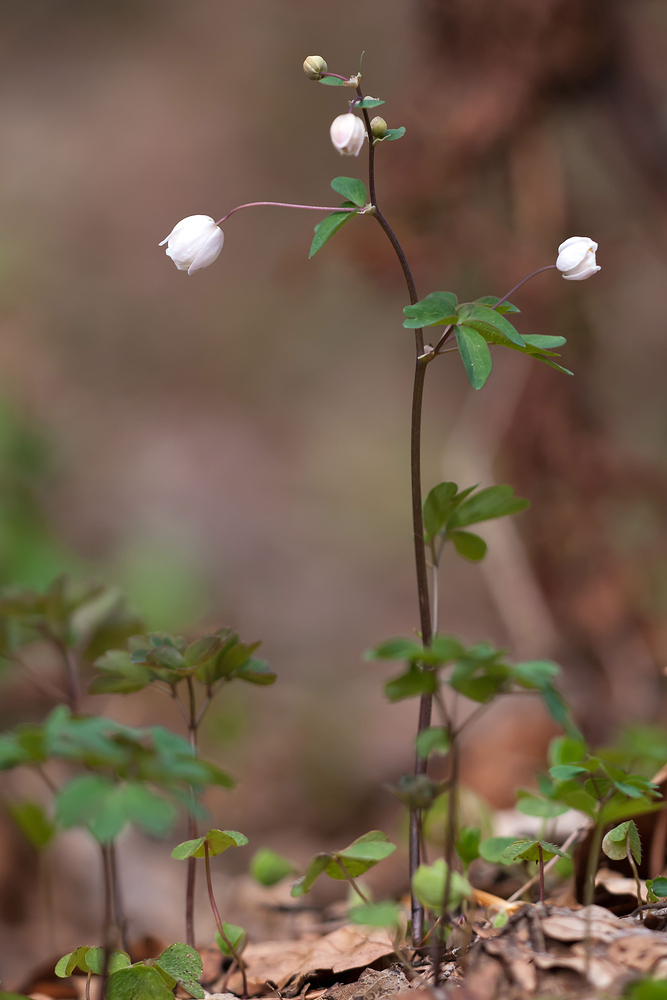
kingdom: Plantae
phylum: Tracheophyta
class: Magnoliopsida
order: Ranunculales
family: Ranunculaceae
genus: Isopyrum
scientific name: Isopyrum thalictroides
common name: Isopyrum
